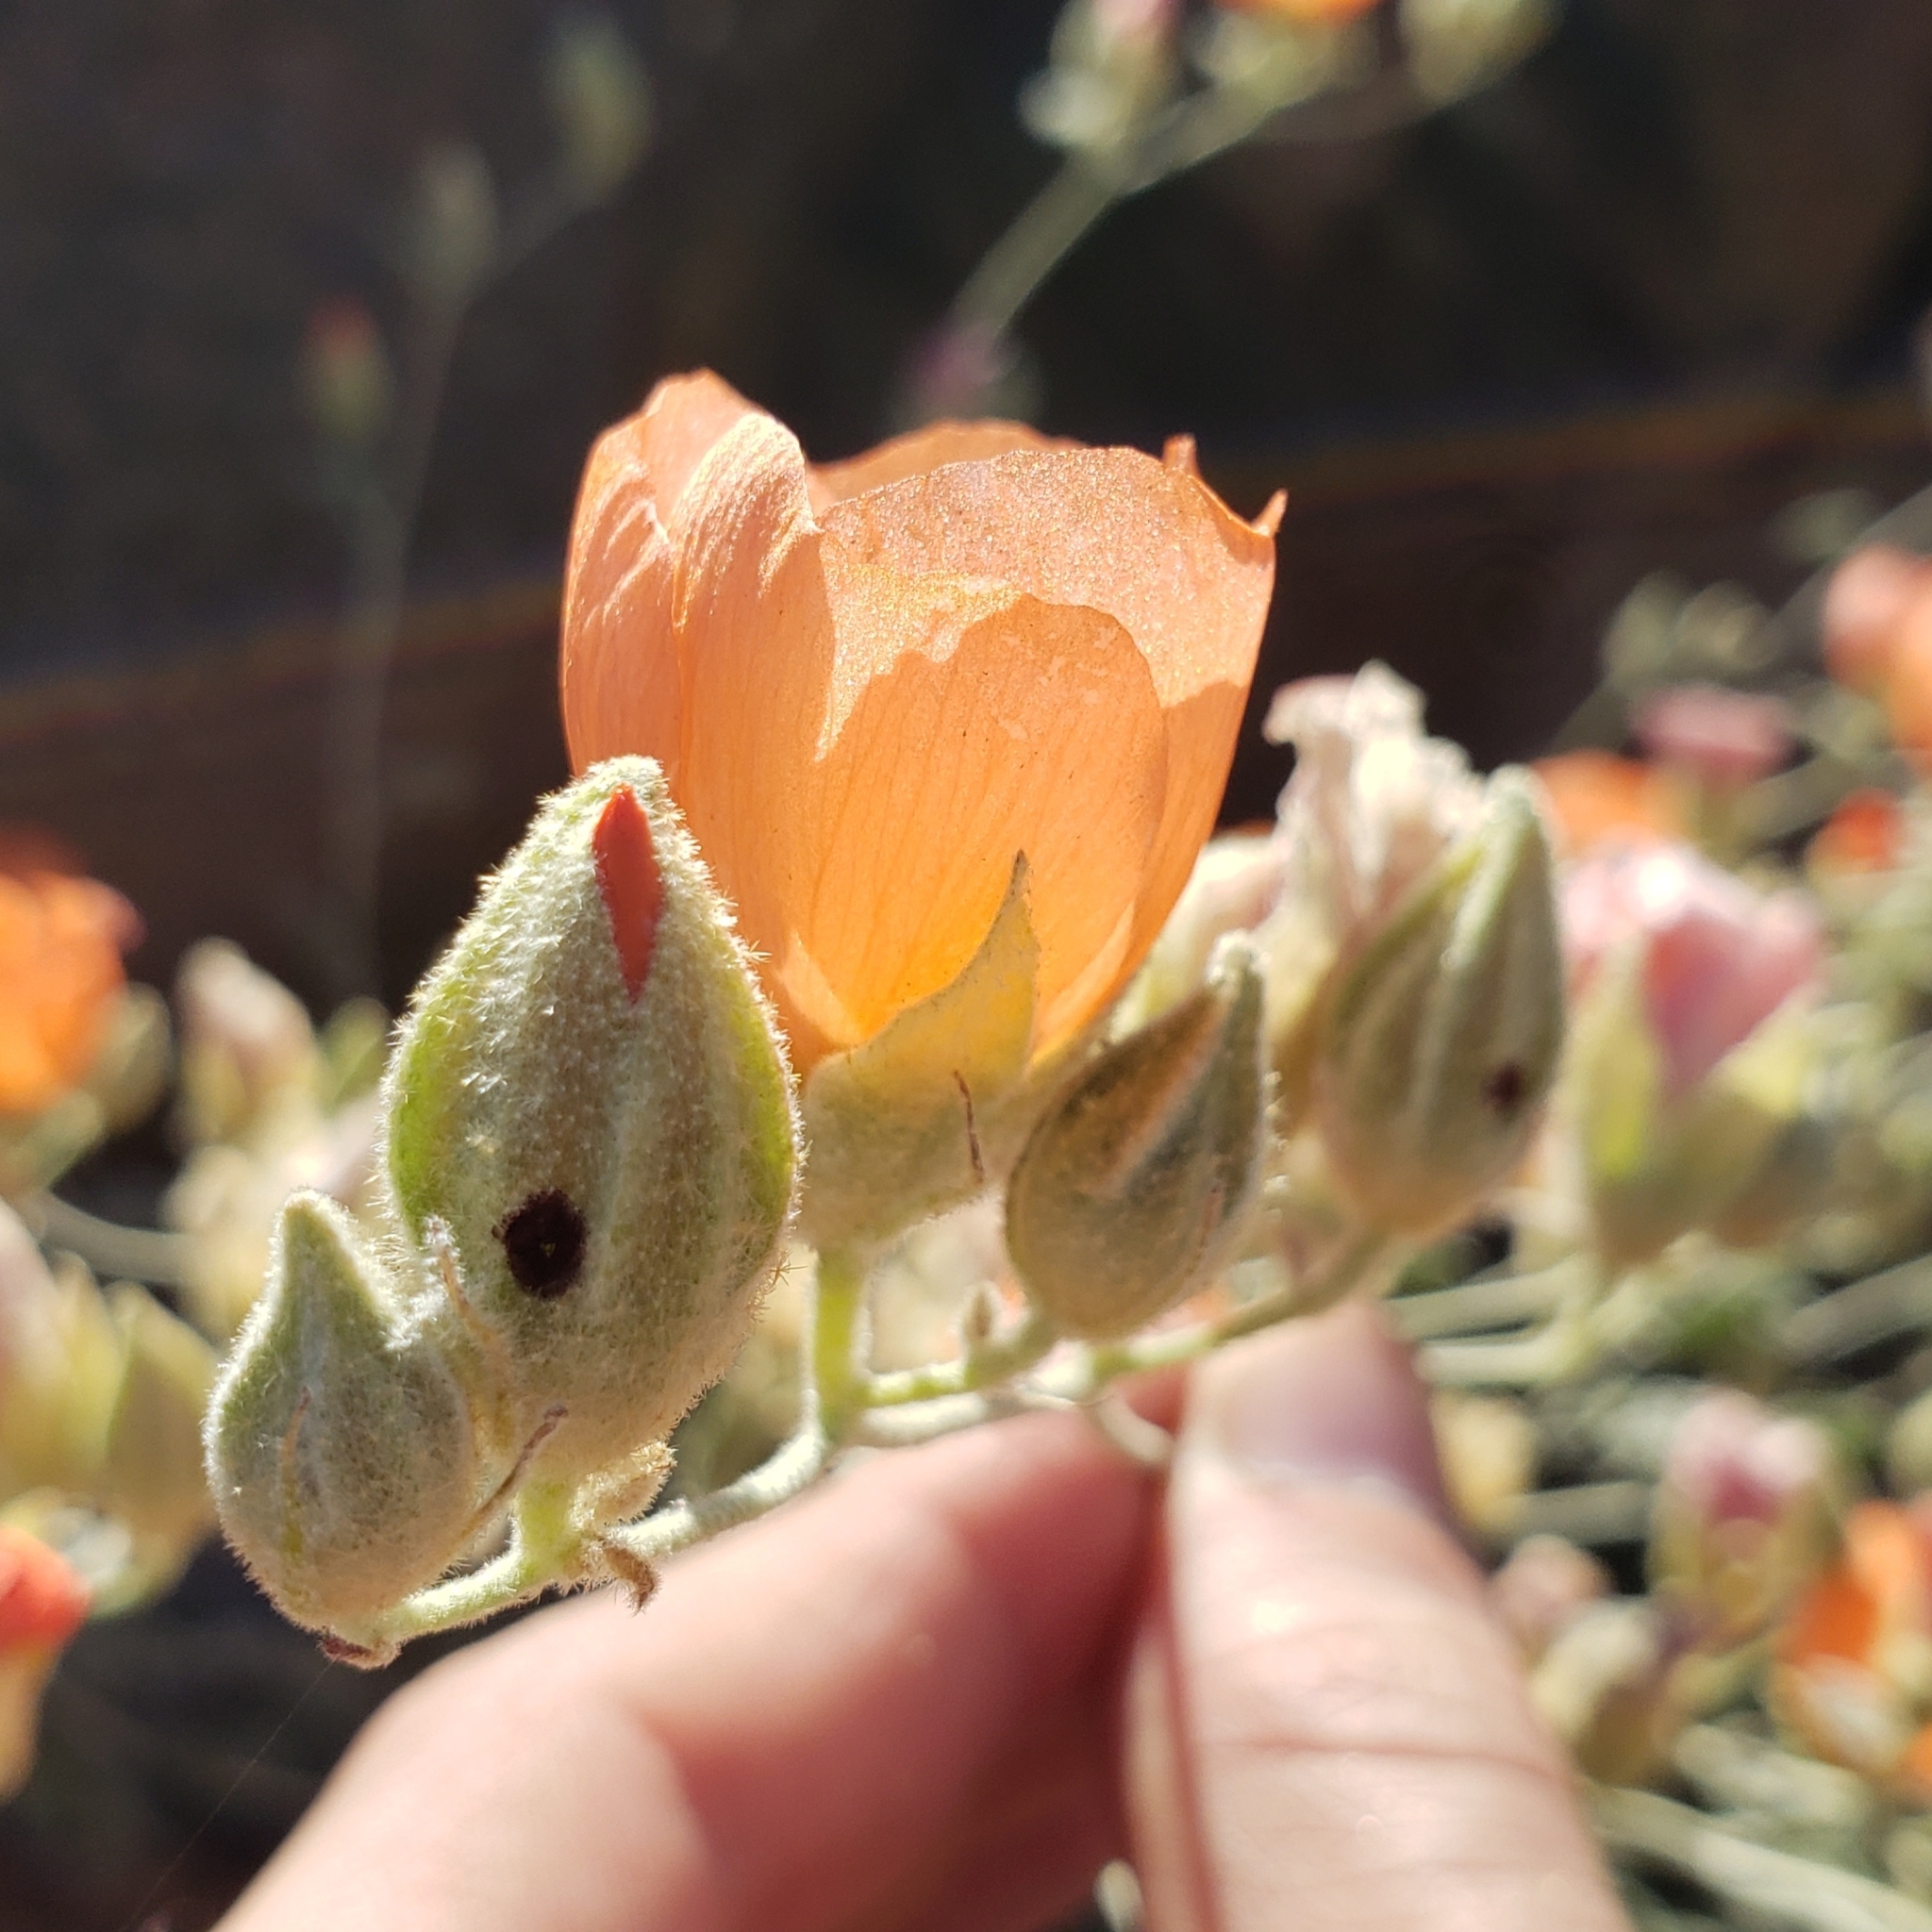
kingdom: Plantae
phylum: Tracheophyta
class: Magnoliopsida
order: Malvales
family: Malvaceae
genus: Sphaeralcea
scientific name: Sphaeralcea ambigua
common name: Apricot globe-mallow
